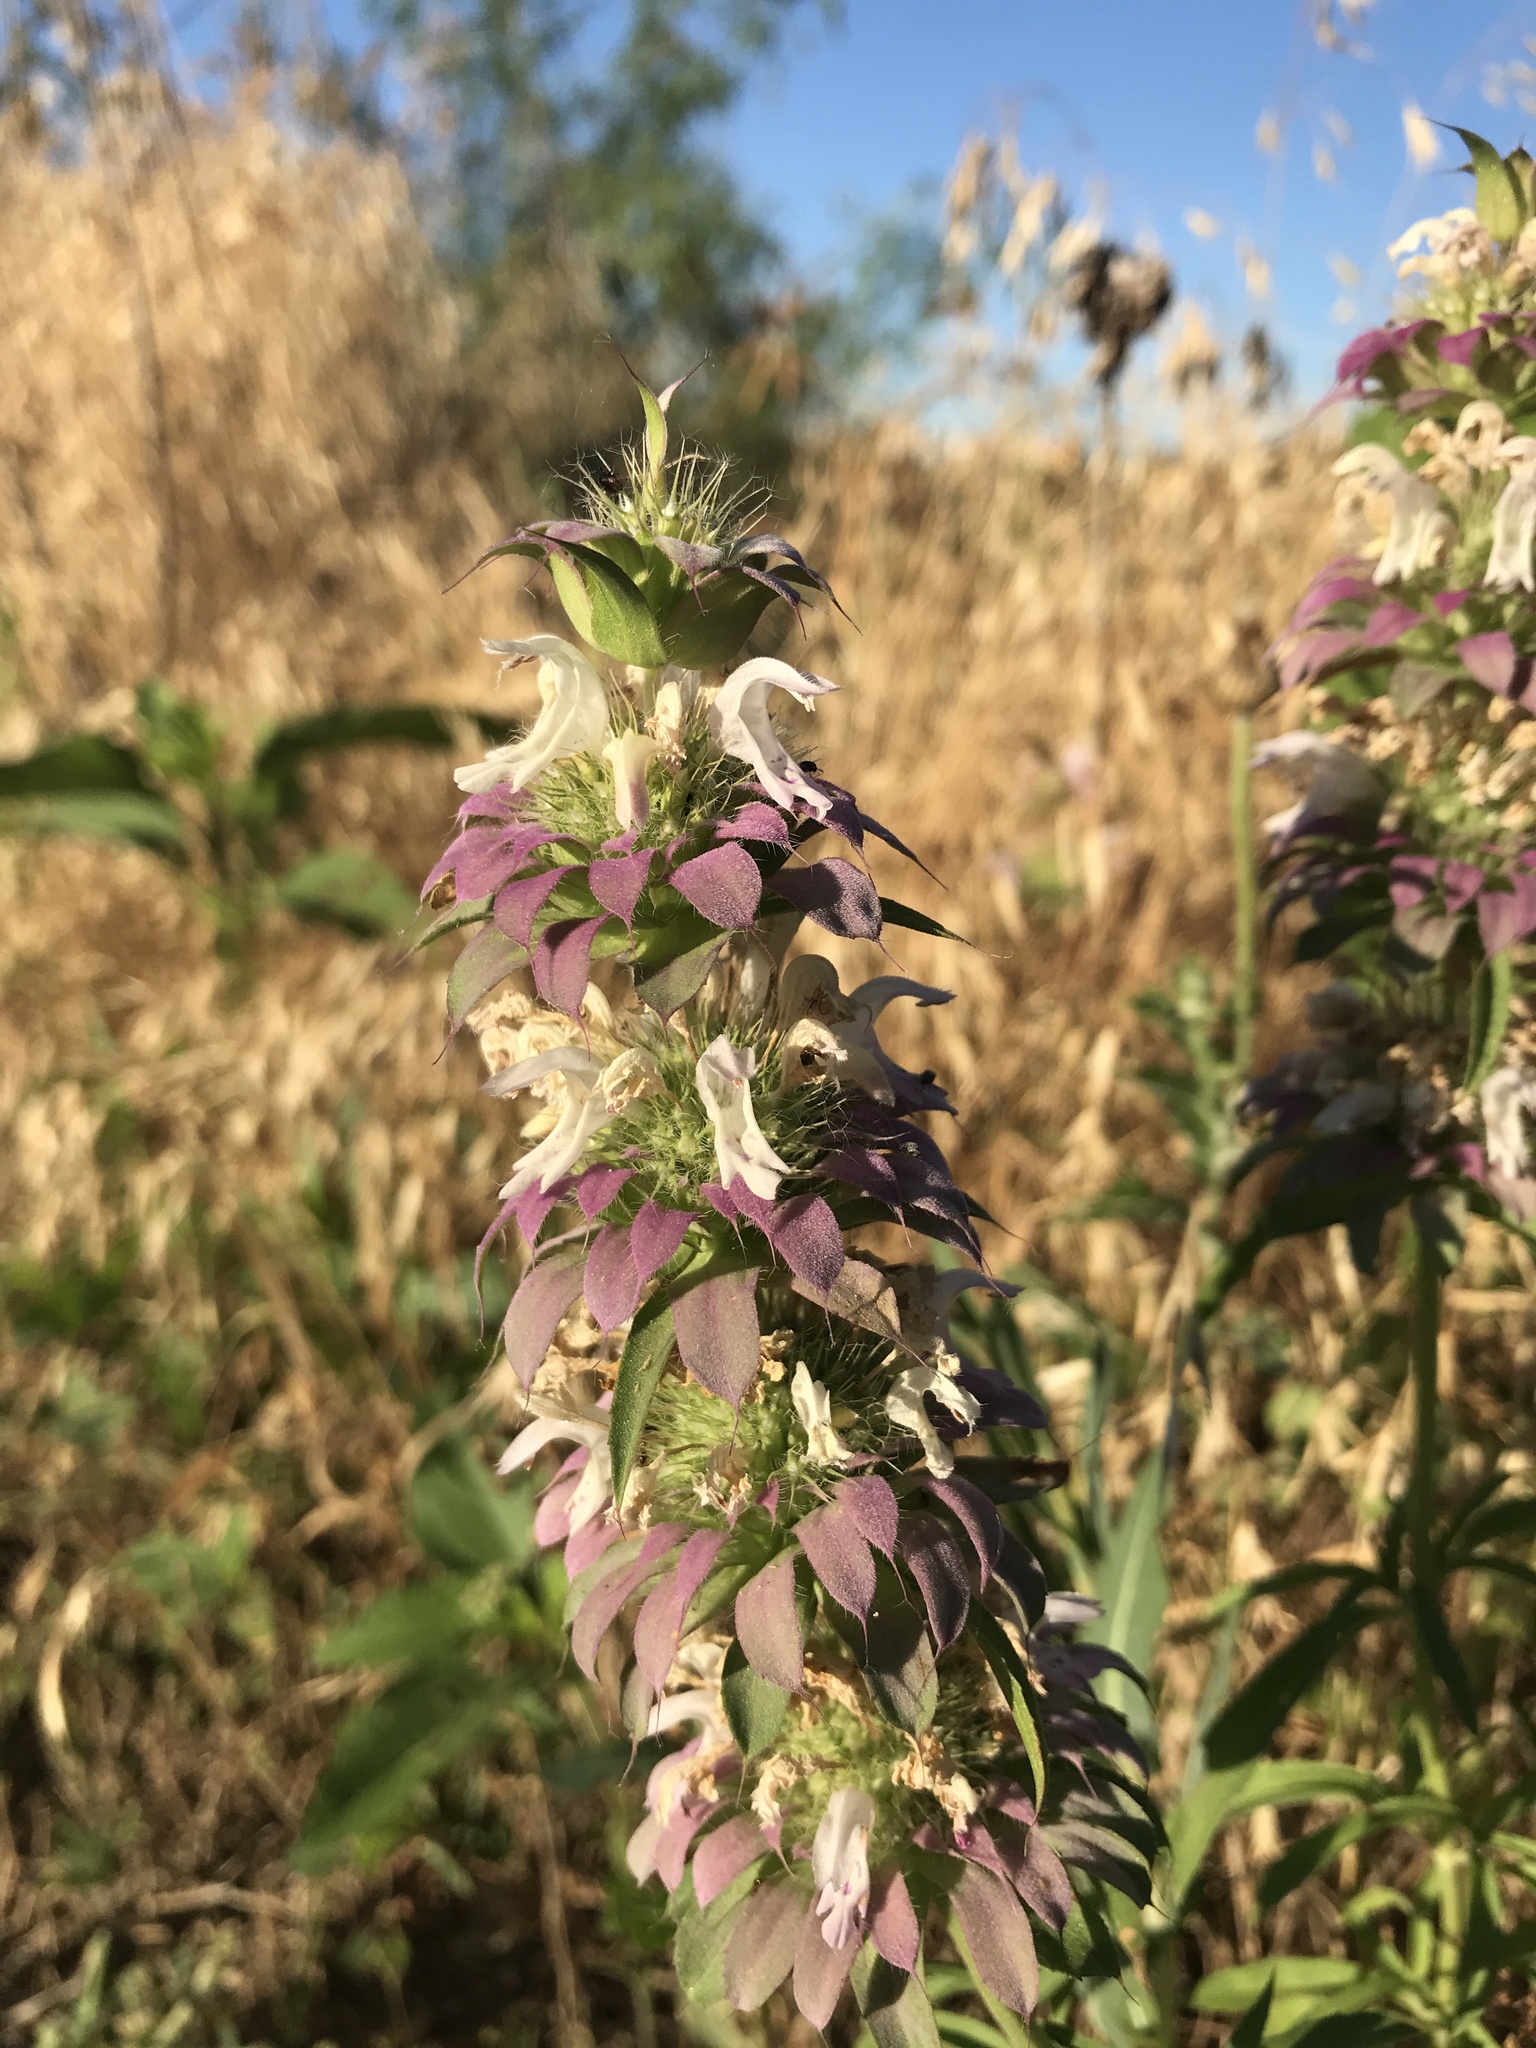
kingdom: Plantae
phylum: Tracheophyta
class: Magnoliopsida
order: Lamiales
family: Lamiaceae
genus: Monarda
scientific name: Monarda citriodora
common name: Lemon beebalm
